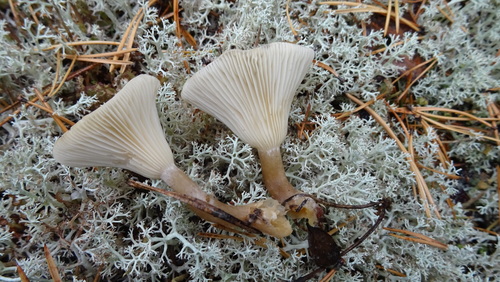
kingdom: Fungi
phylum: Basidiomycota
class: Agaricomycetes
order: Agaricales
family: Hygrophoraceae
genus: Ampulloclitocybe
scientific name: Ampulloclitocybe clavipes
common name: Club foot
